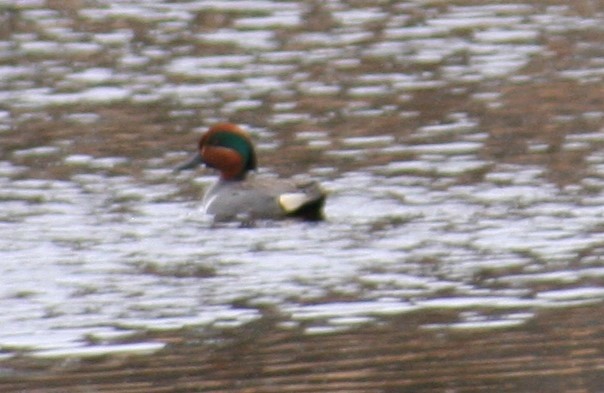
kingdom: Animalia
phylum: Chordata
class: Aves
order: Anseriformes
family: Anatidae
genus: Anas
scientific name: Anas crecca
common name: Eurasian teal
